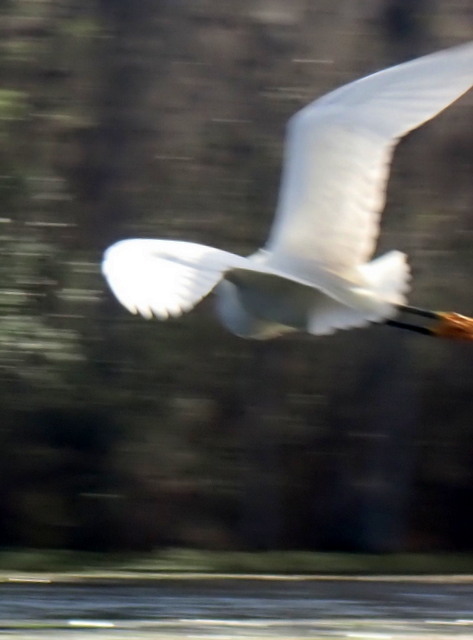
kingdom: Animalia
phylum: Chordata
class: Aves
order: Pelecaniformes
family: Ardeidae
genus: Egretta
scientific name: Egretta thula
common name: Snowy egret
